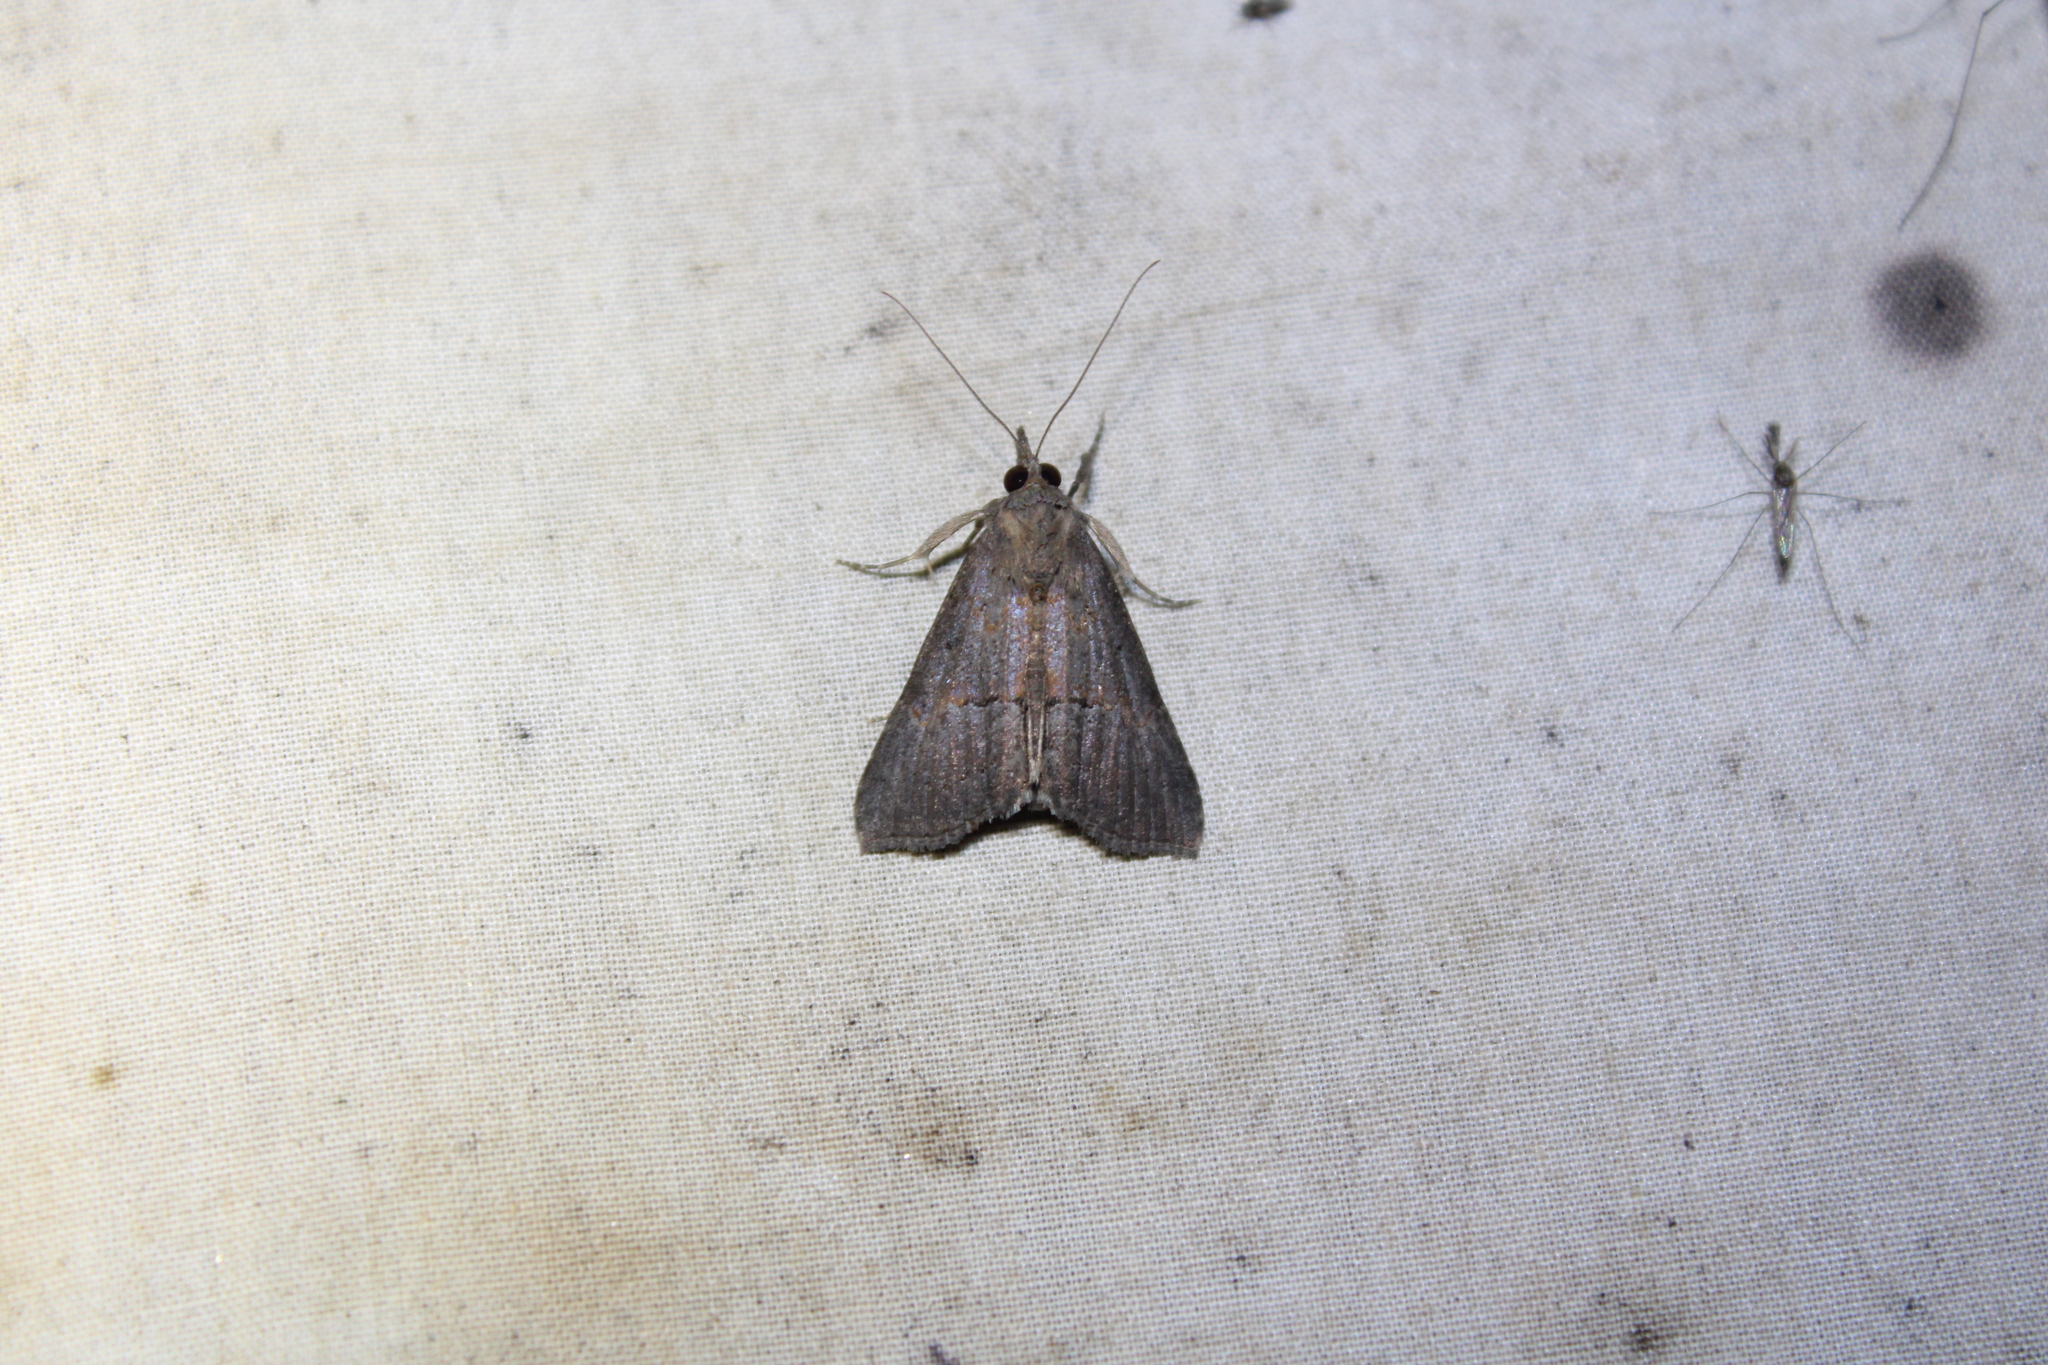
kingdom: Animalia
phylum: Arthropoda
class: Insecta
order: Lepidoptera
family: Erebidae
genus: Hypena
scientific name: Hypena scabra
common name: Green cloverworm
